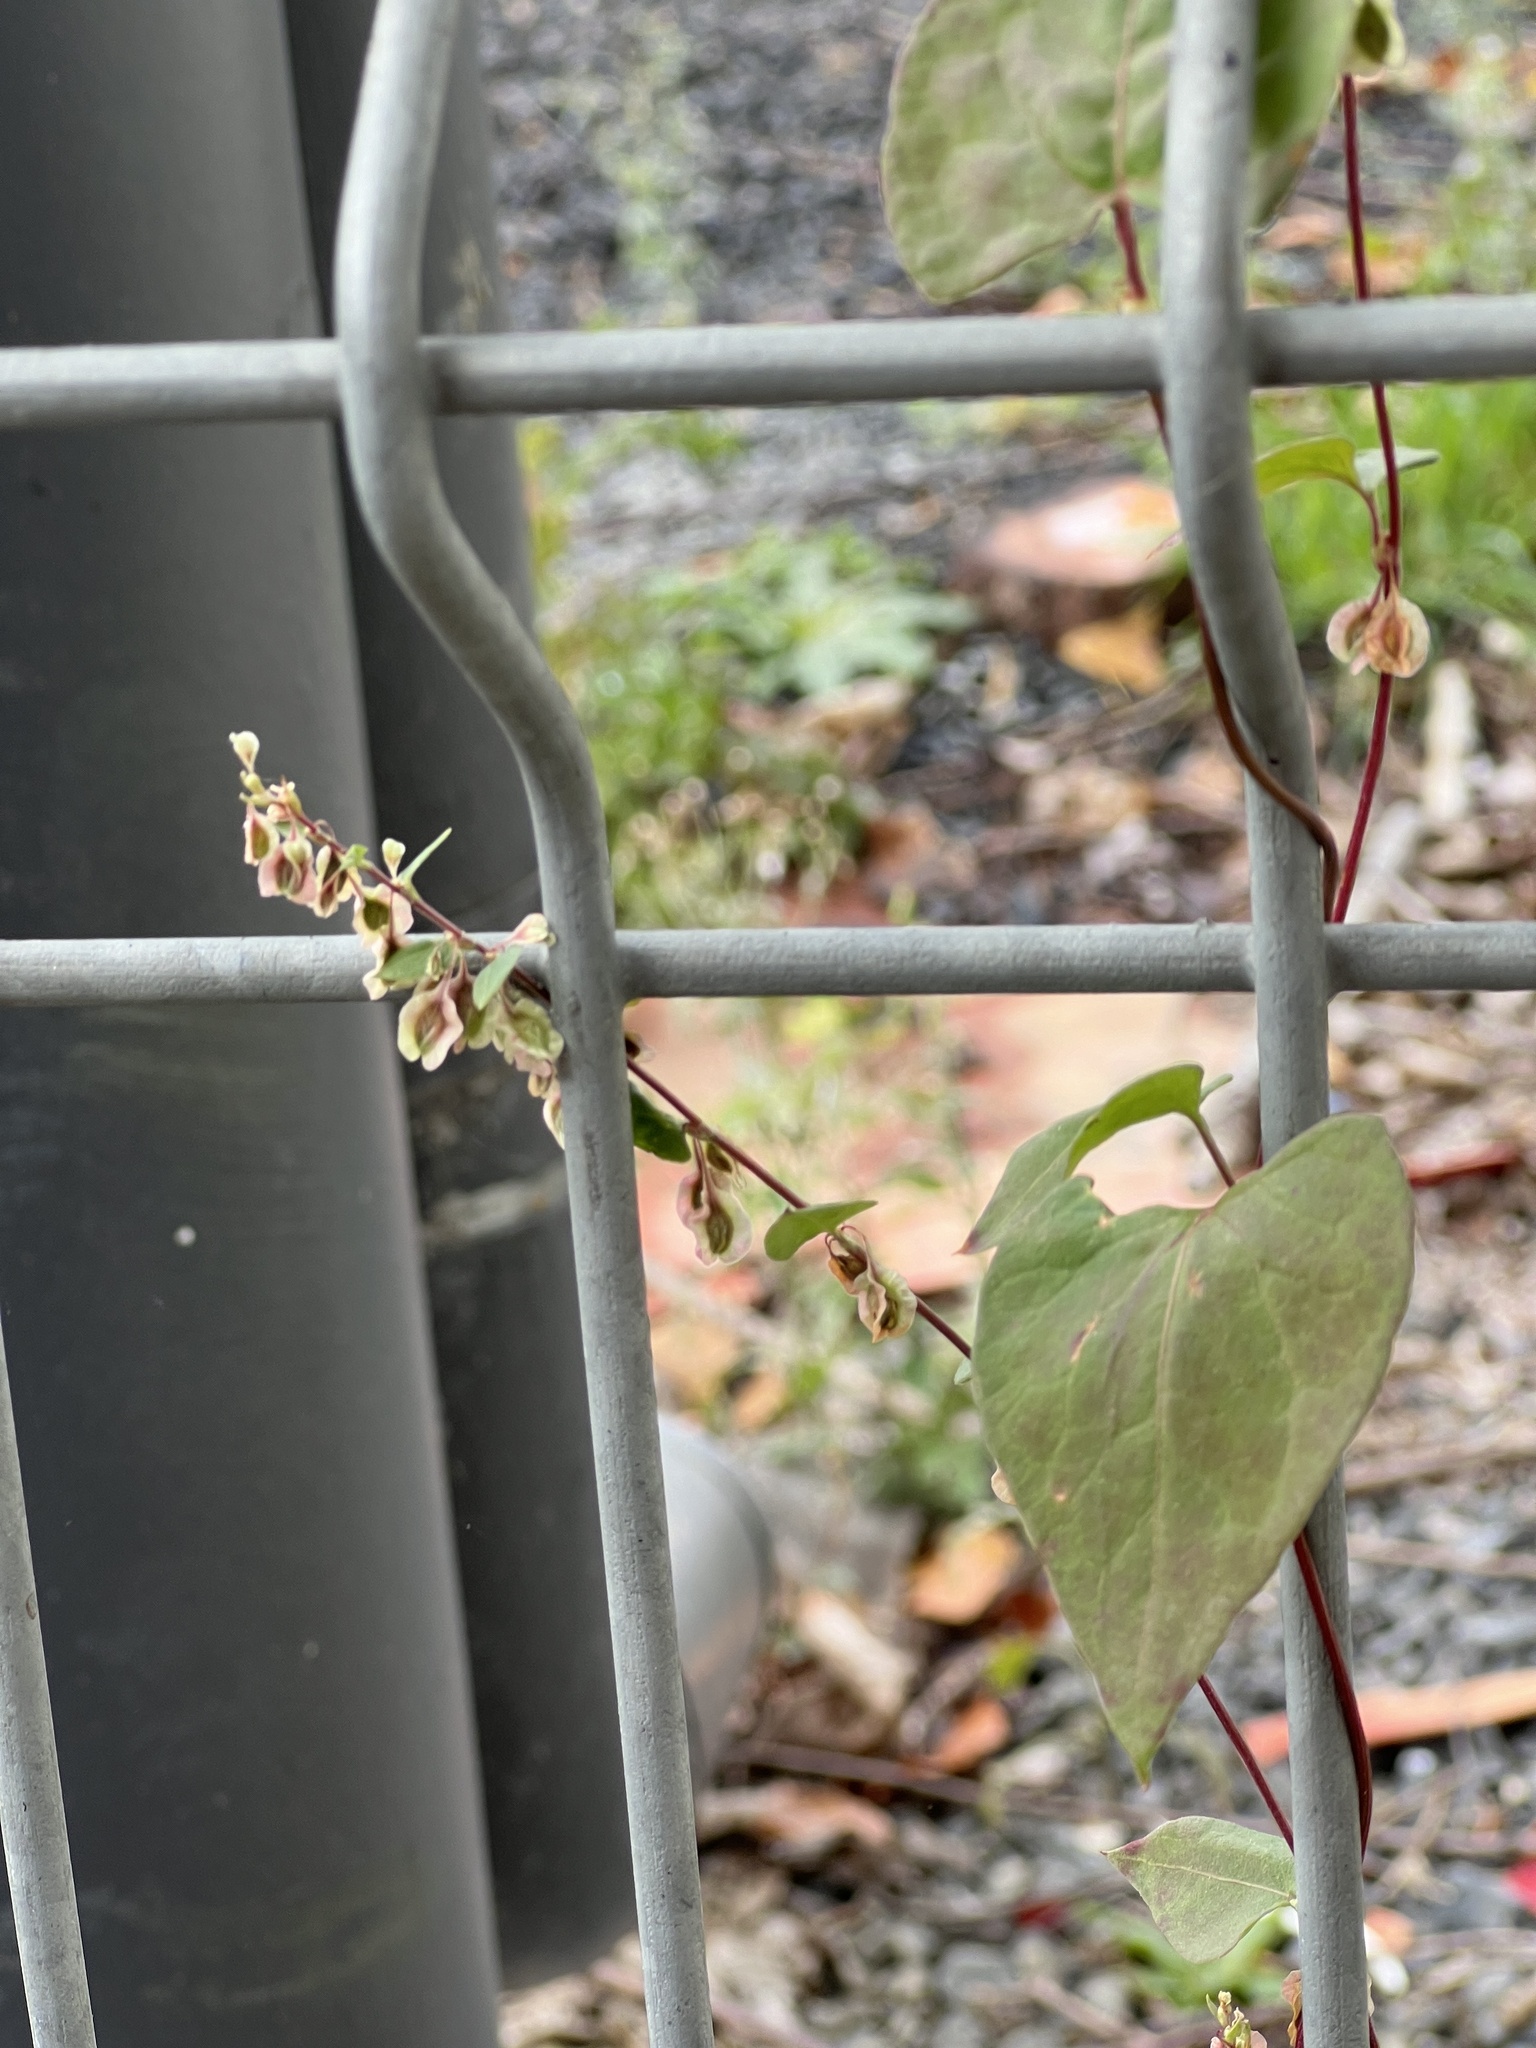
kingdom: Plantae
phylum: Tracheophyta
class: Magnoliopsida
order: Caryophyllales
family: Polygonaceae
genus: Fallopia
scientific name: Fallopia dumetorum
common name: Copse-bindweed
